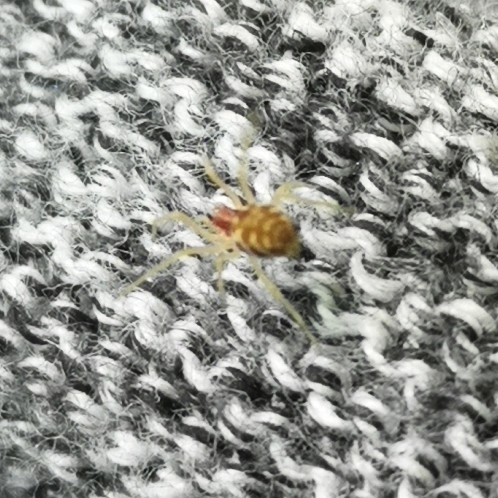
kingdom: Animalia
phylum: Arthropoda
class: Arachnida
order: Araneae
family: Dictynidae
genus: Nigma
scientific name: Nigma flavescens
